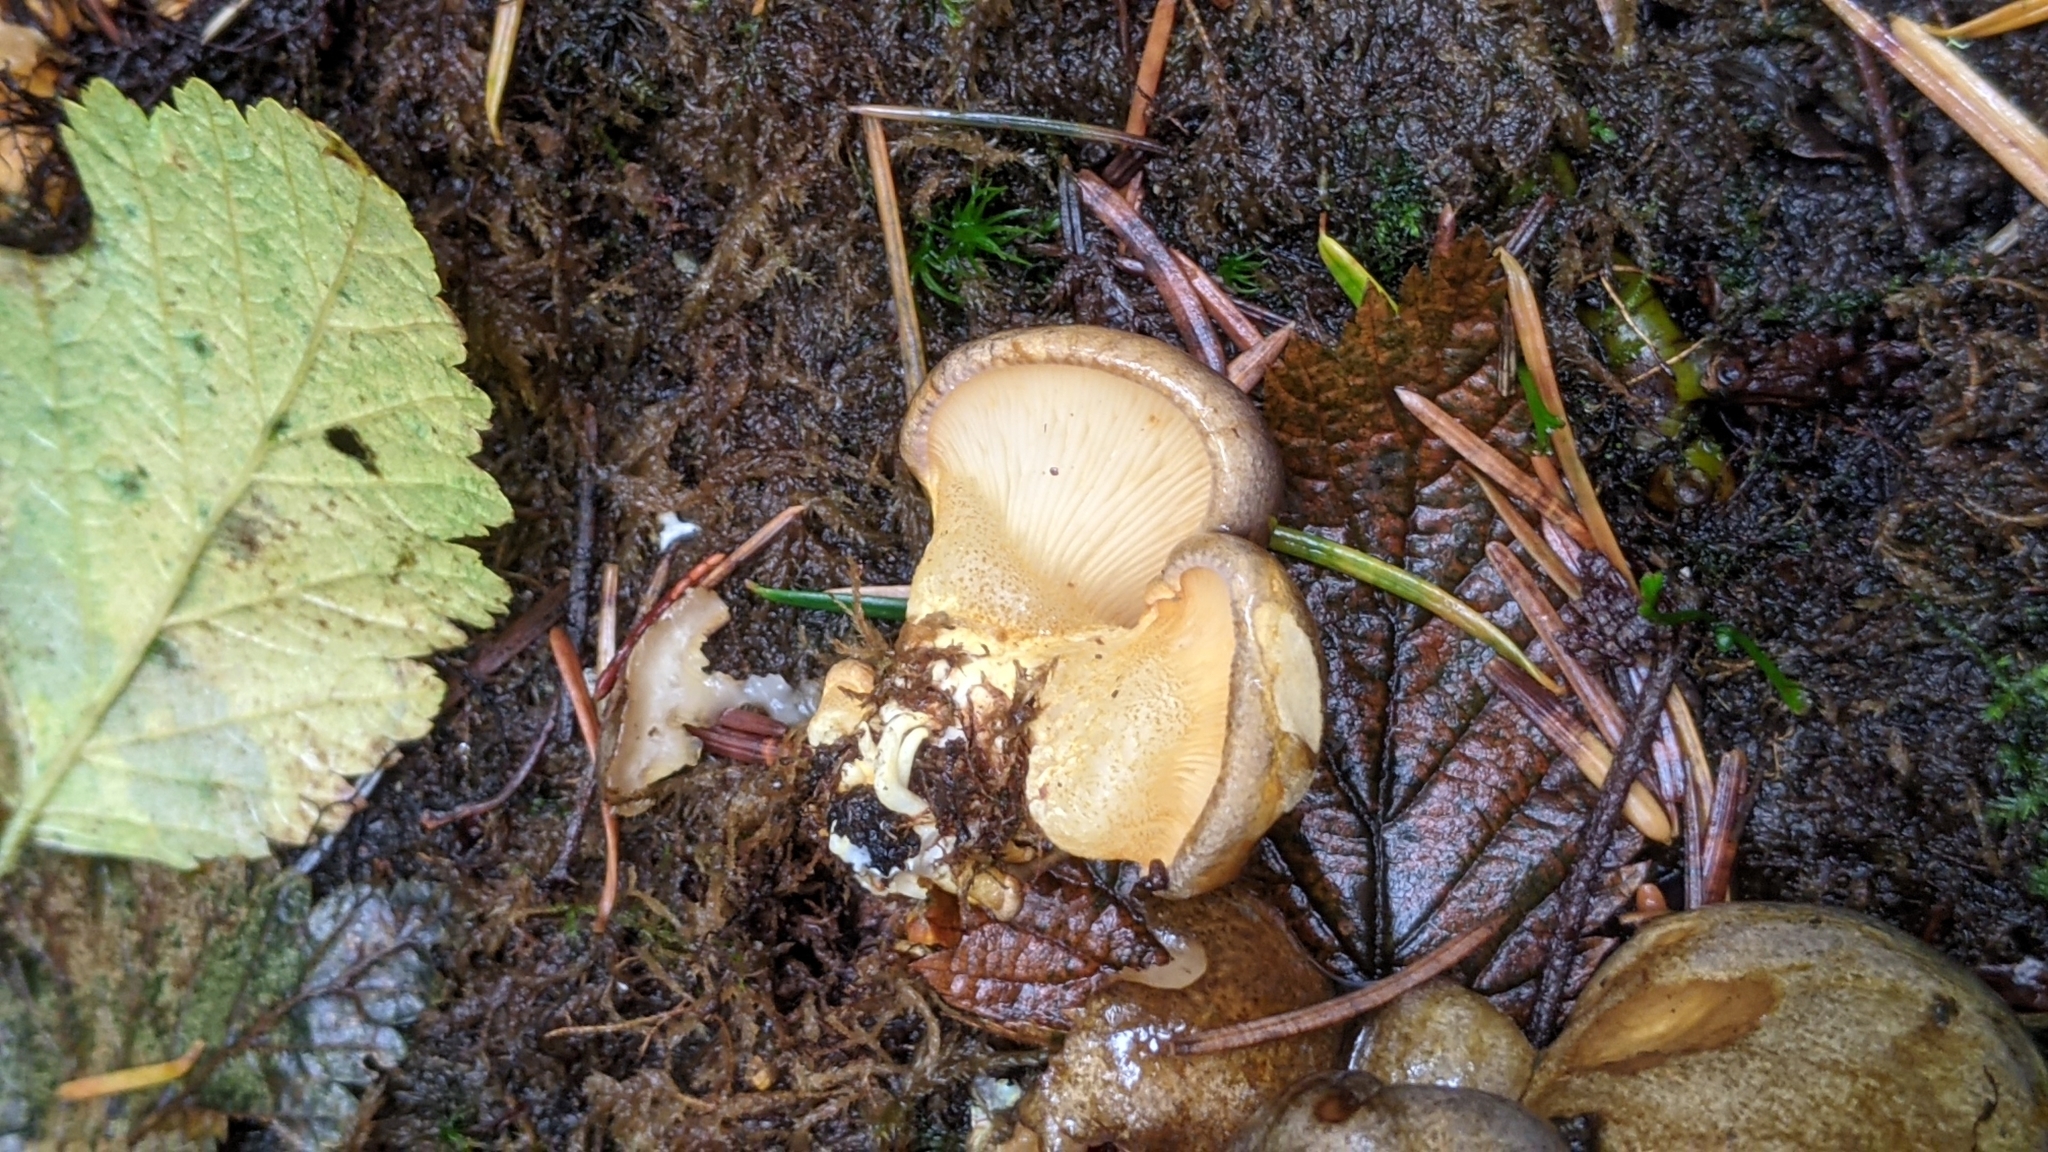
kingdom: Fungi
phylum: Basidiomycota
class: Agaricomycetes
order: Agaricales
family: Sarcomyxaceae
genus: Sarcomyxa
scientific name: Sarcomyxa serotina
